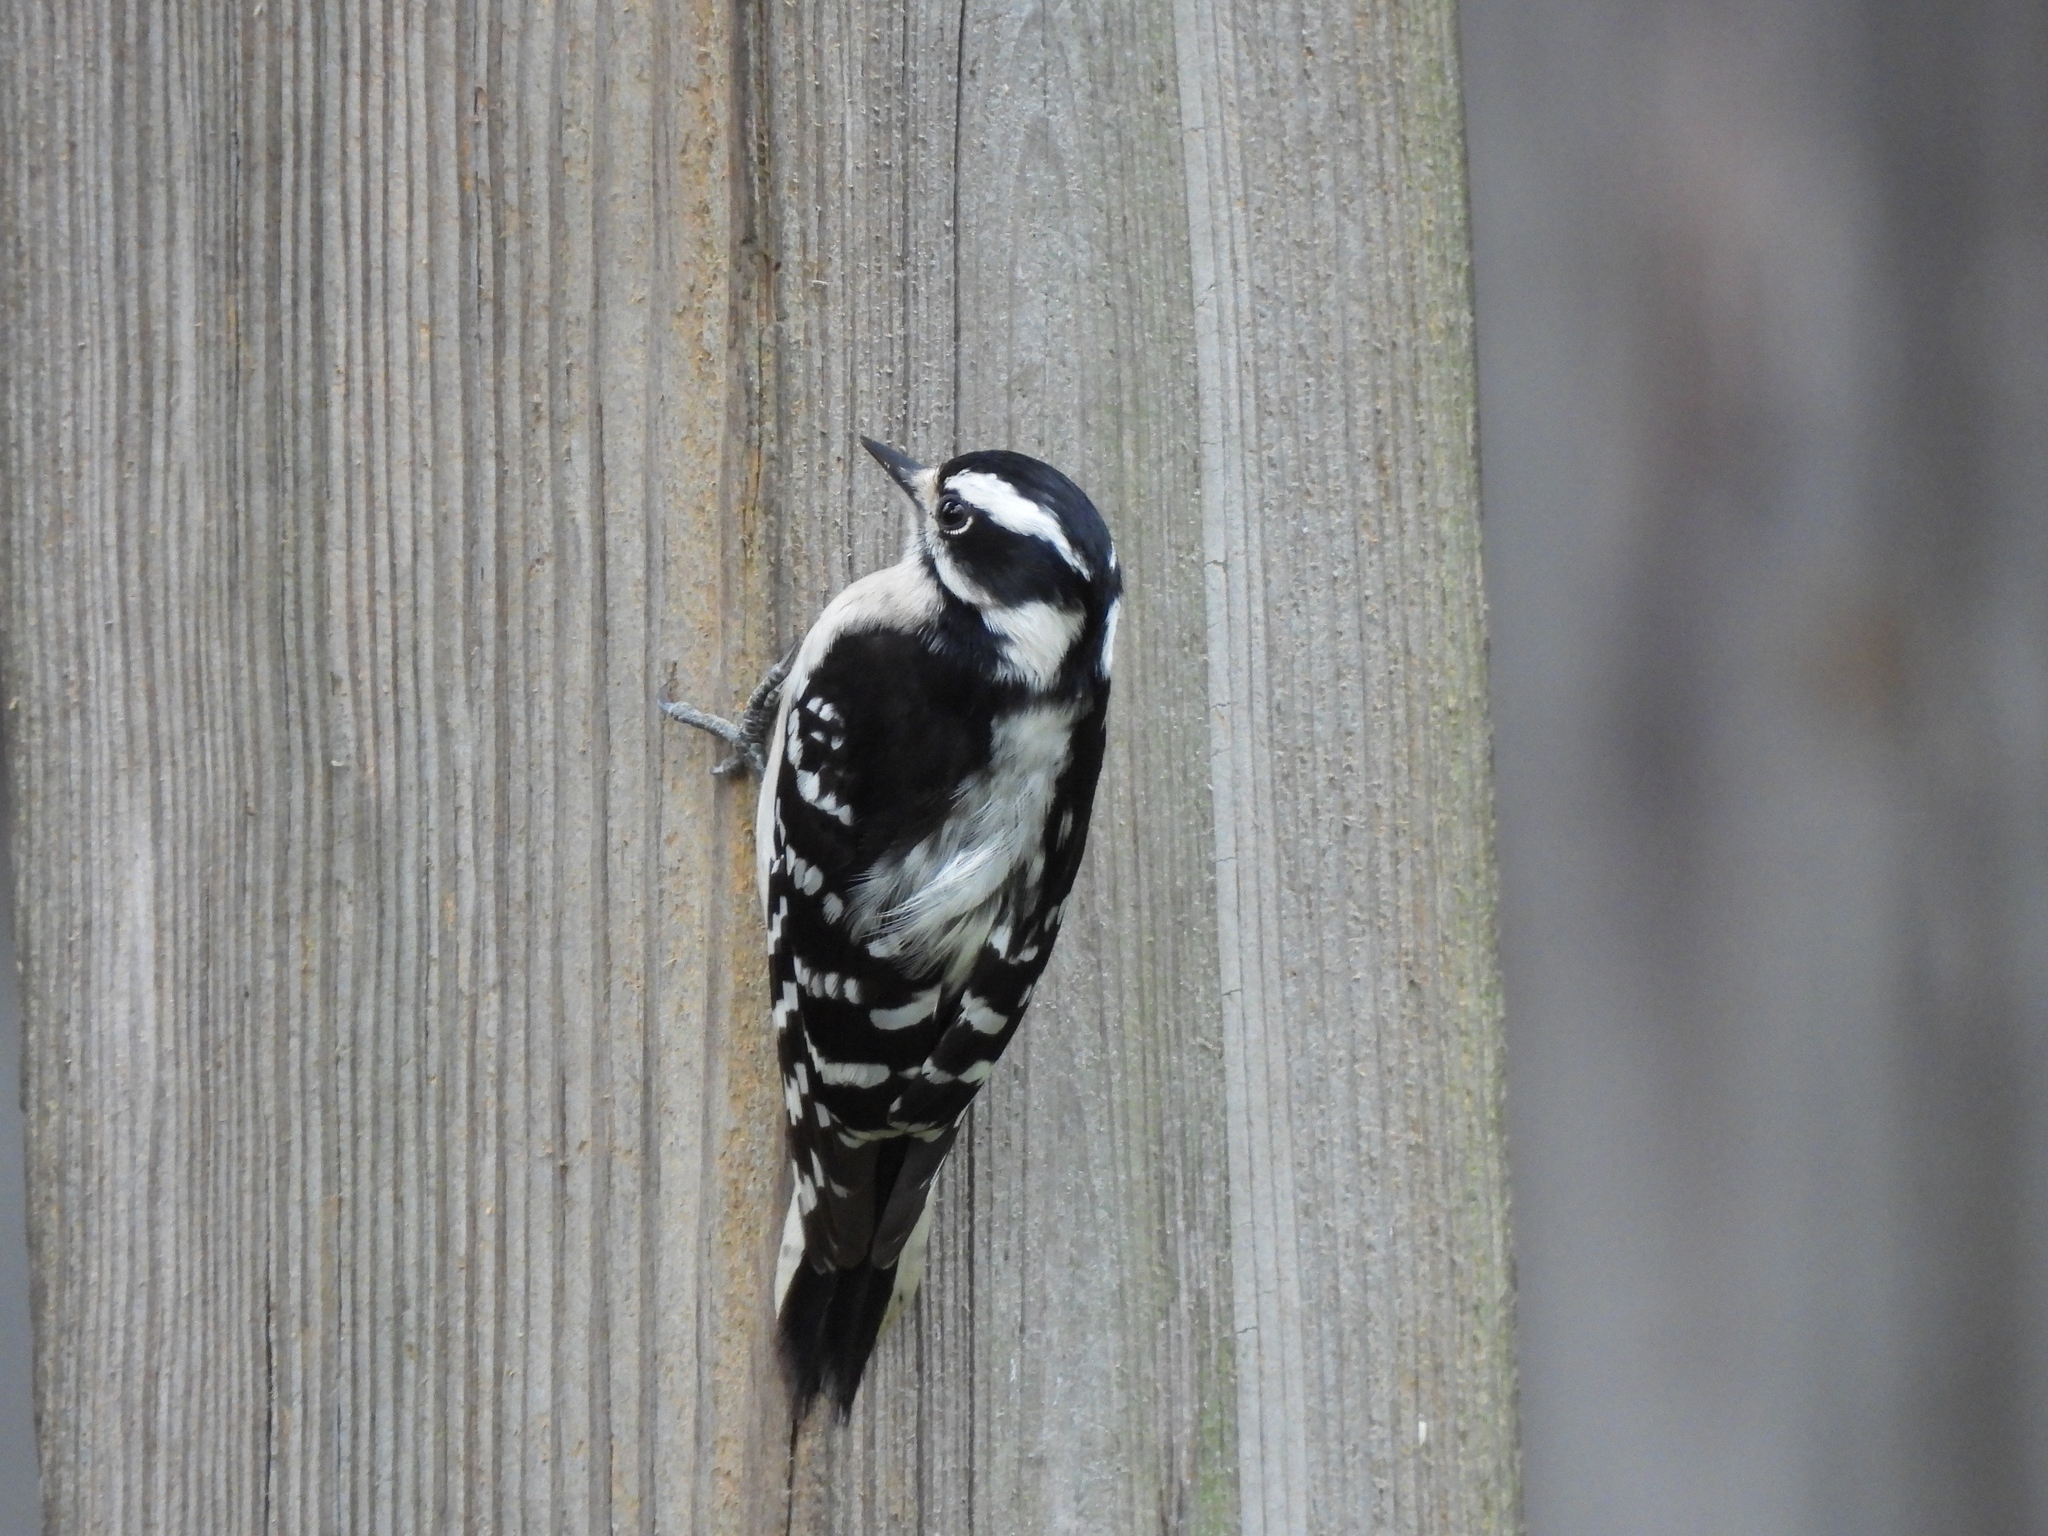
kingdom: Animalia
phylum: Chordata
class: Aves
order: Piciformes
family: Picidae
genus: Dryobates
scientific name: Dryobates pubescens
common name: Downy woodpecker
